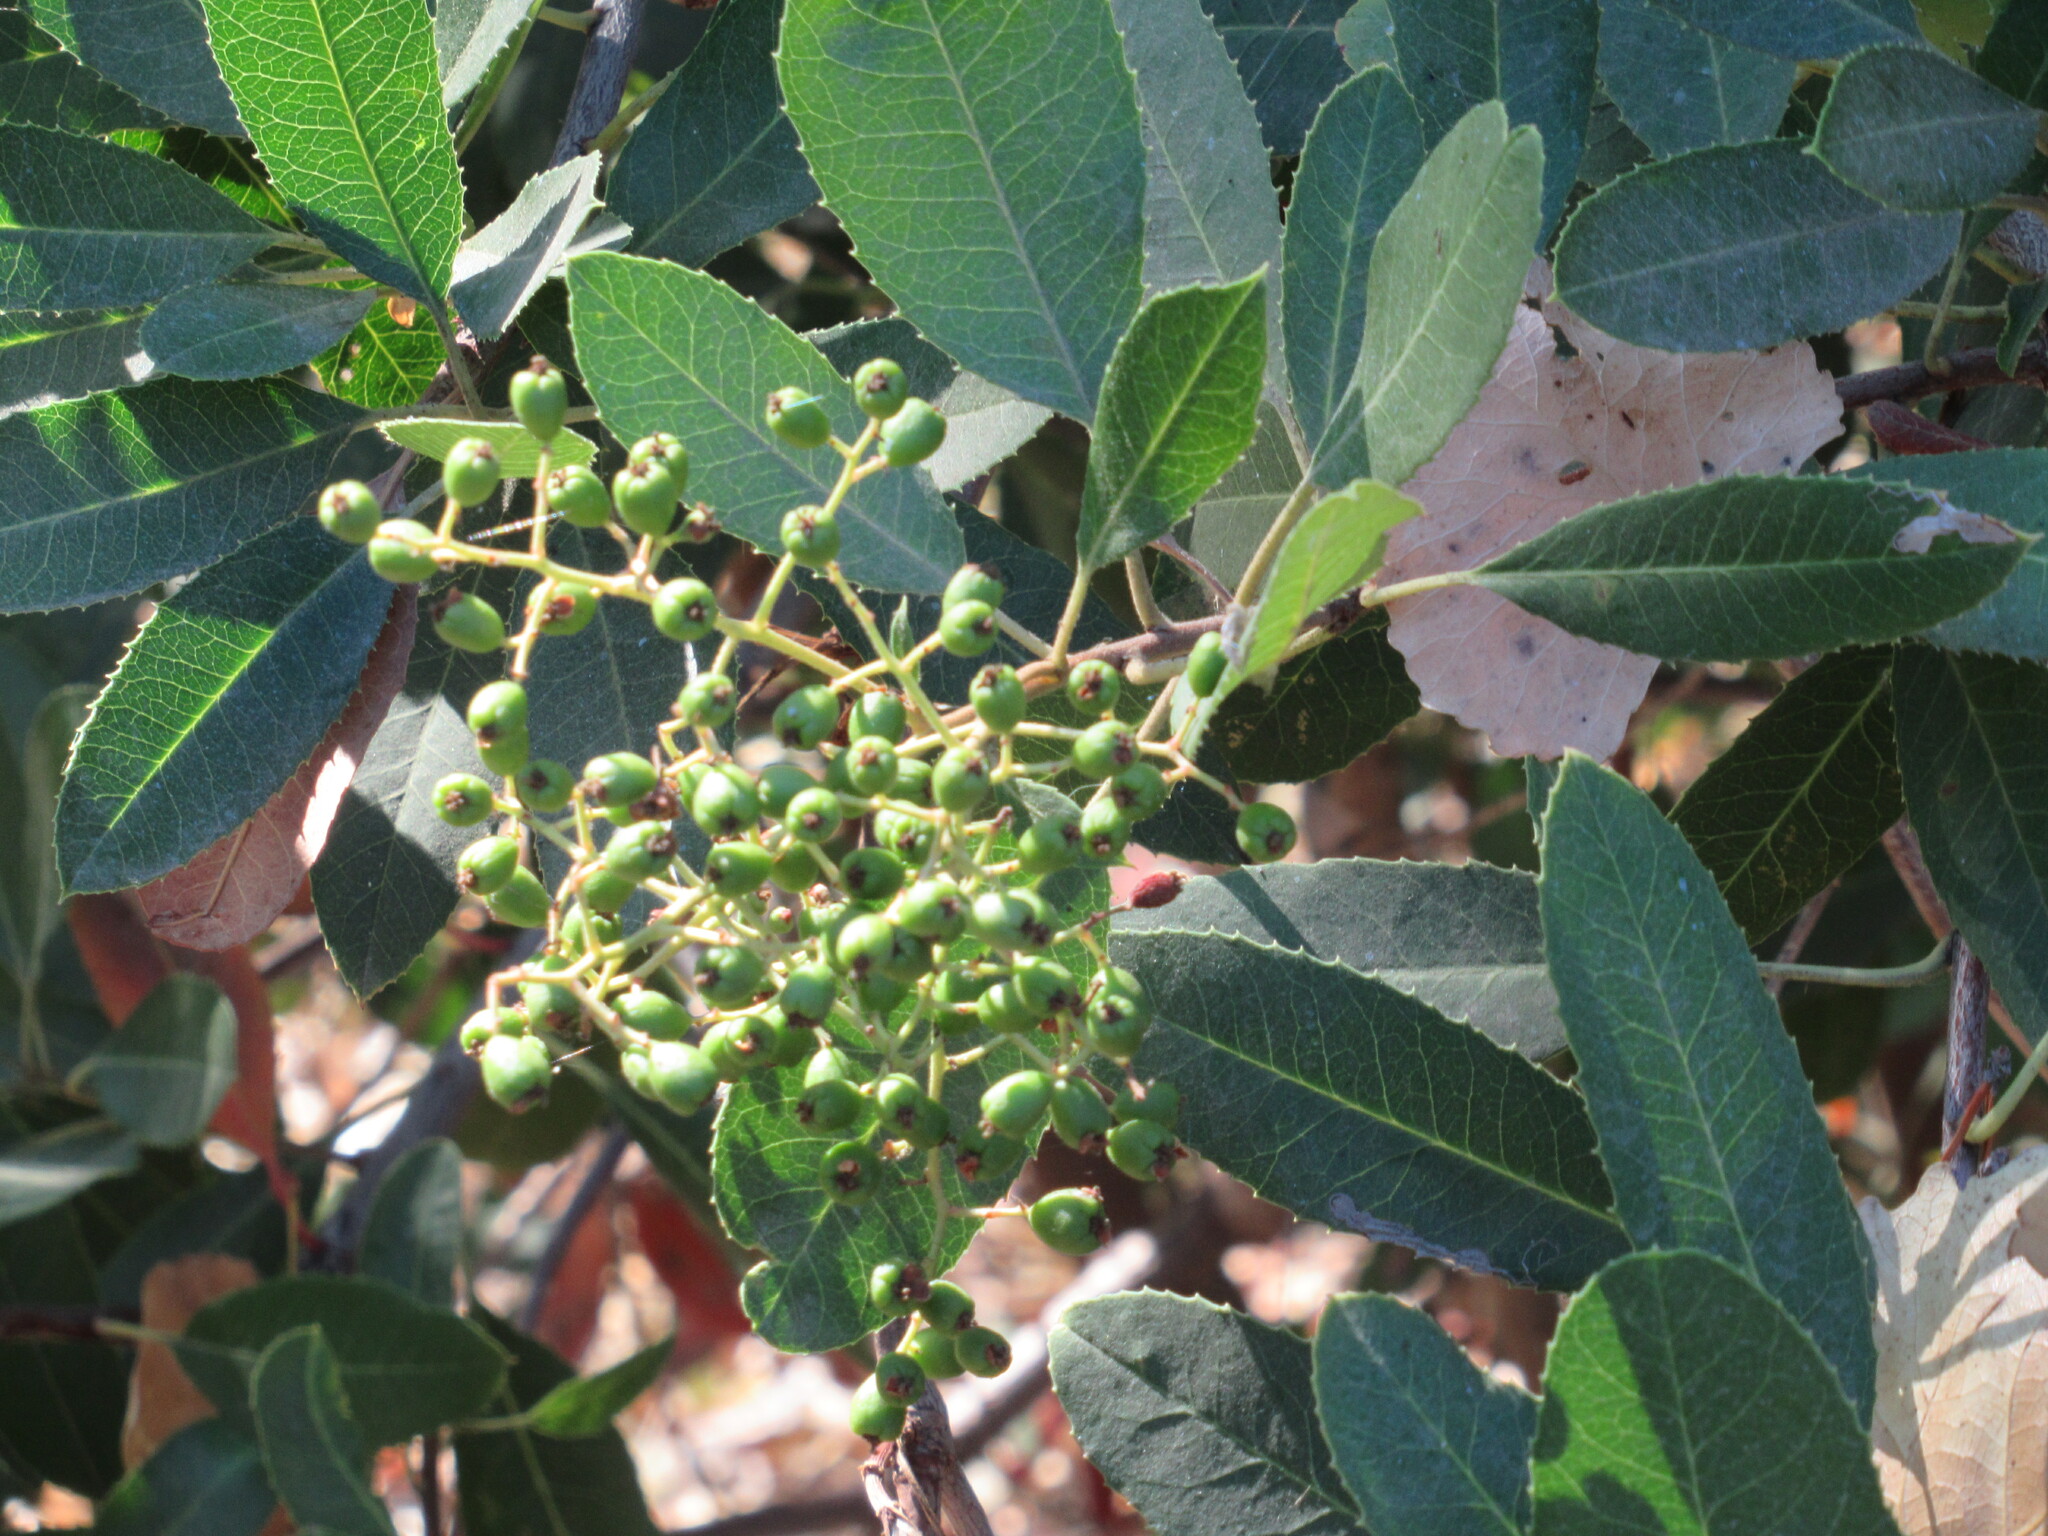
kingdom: Plantae
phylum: Tracheophyta
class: Magnoliopsida
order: Rosales
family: Rosaceae
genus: Heteromeles
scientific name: Heteromeles arbutifolia
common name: California-holly
